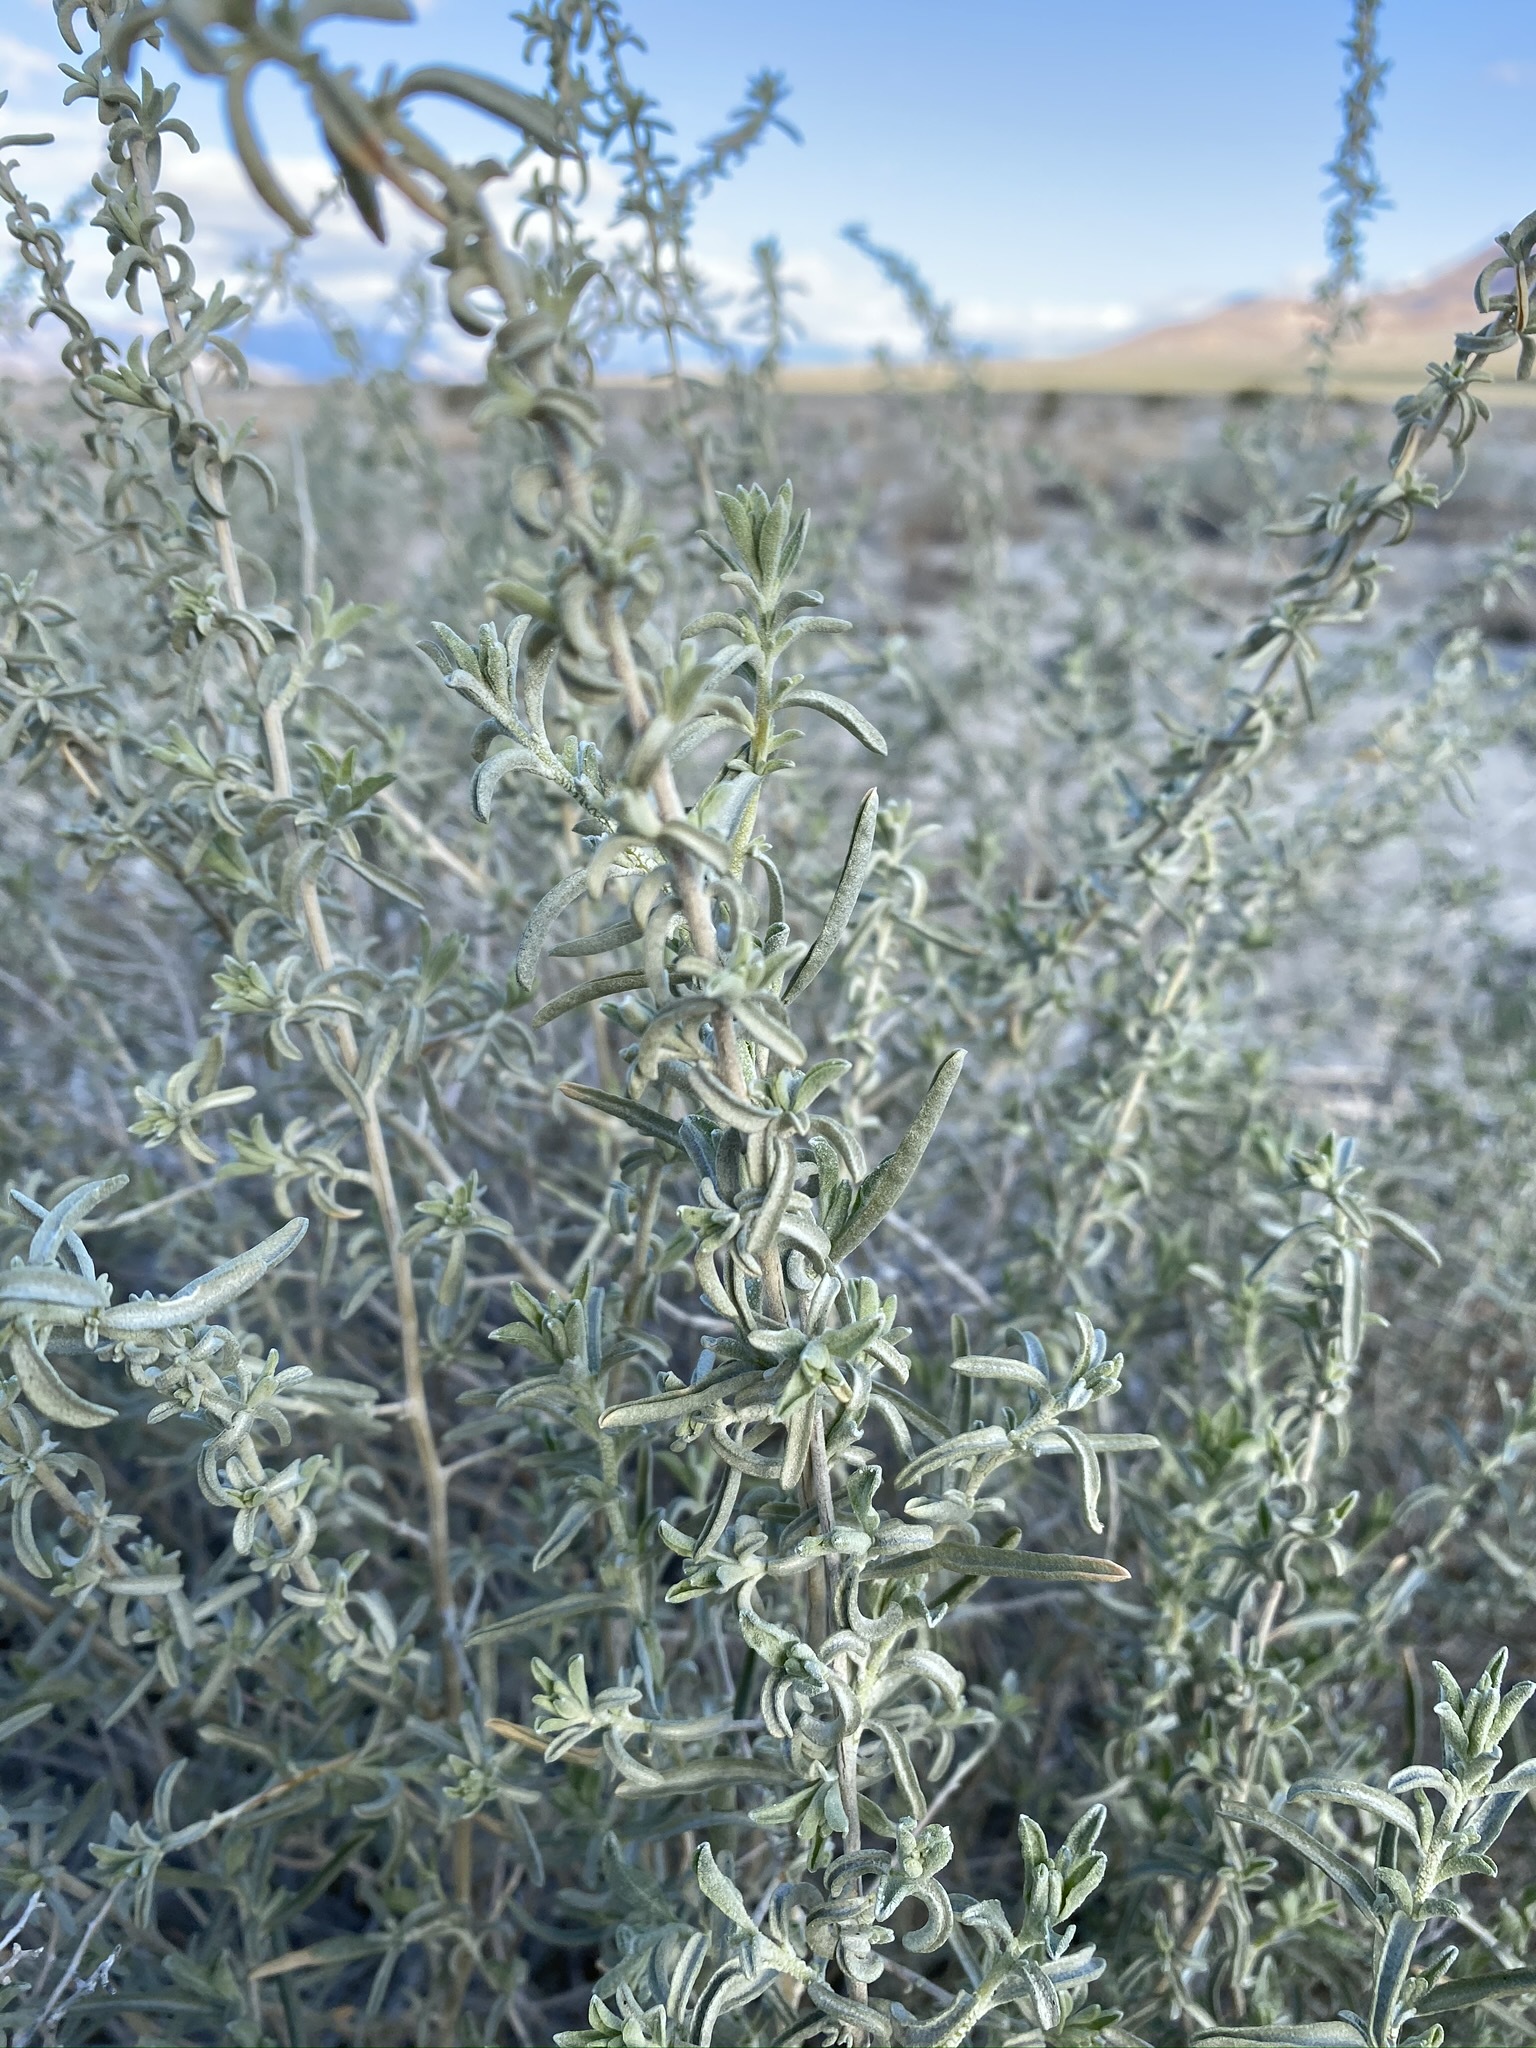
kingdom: Plantae
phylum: Tracheophyta
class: Magnoliopsida
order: Caryophyllales
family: Amaranthaceae
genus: Atriplex
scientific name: Atriplex canescens
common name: Four-wing saltbush
